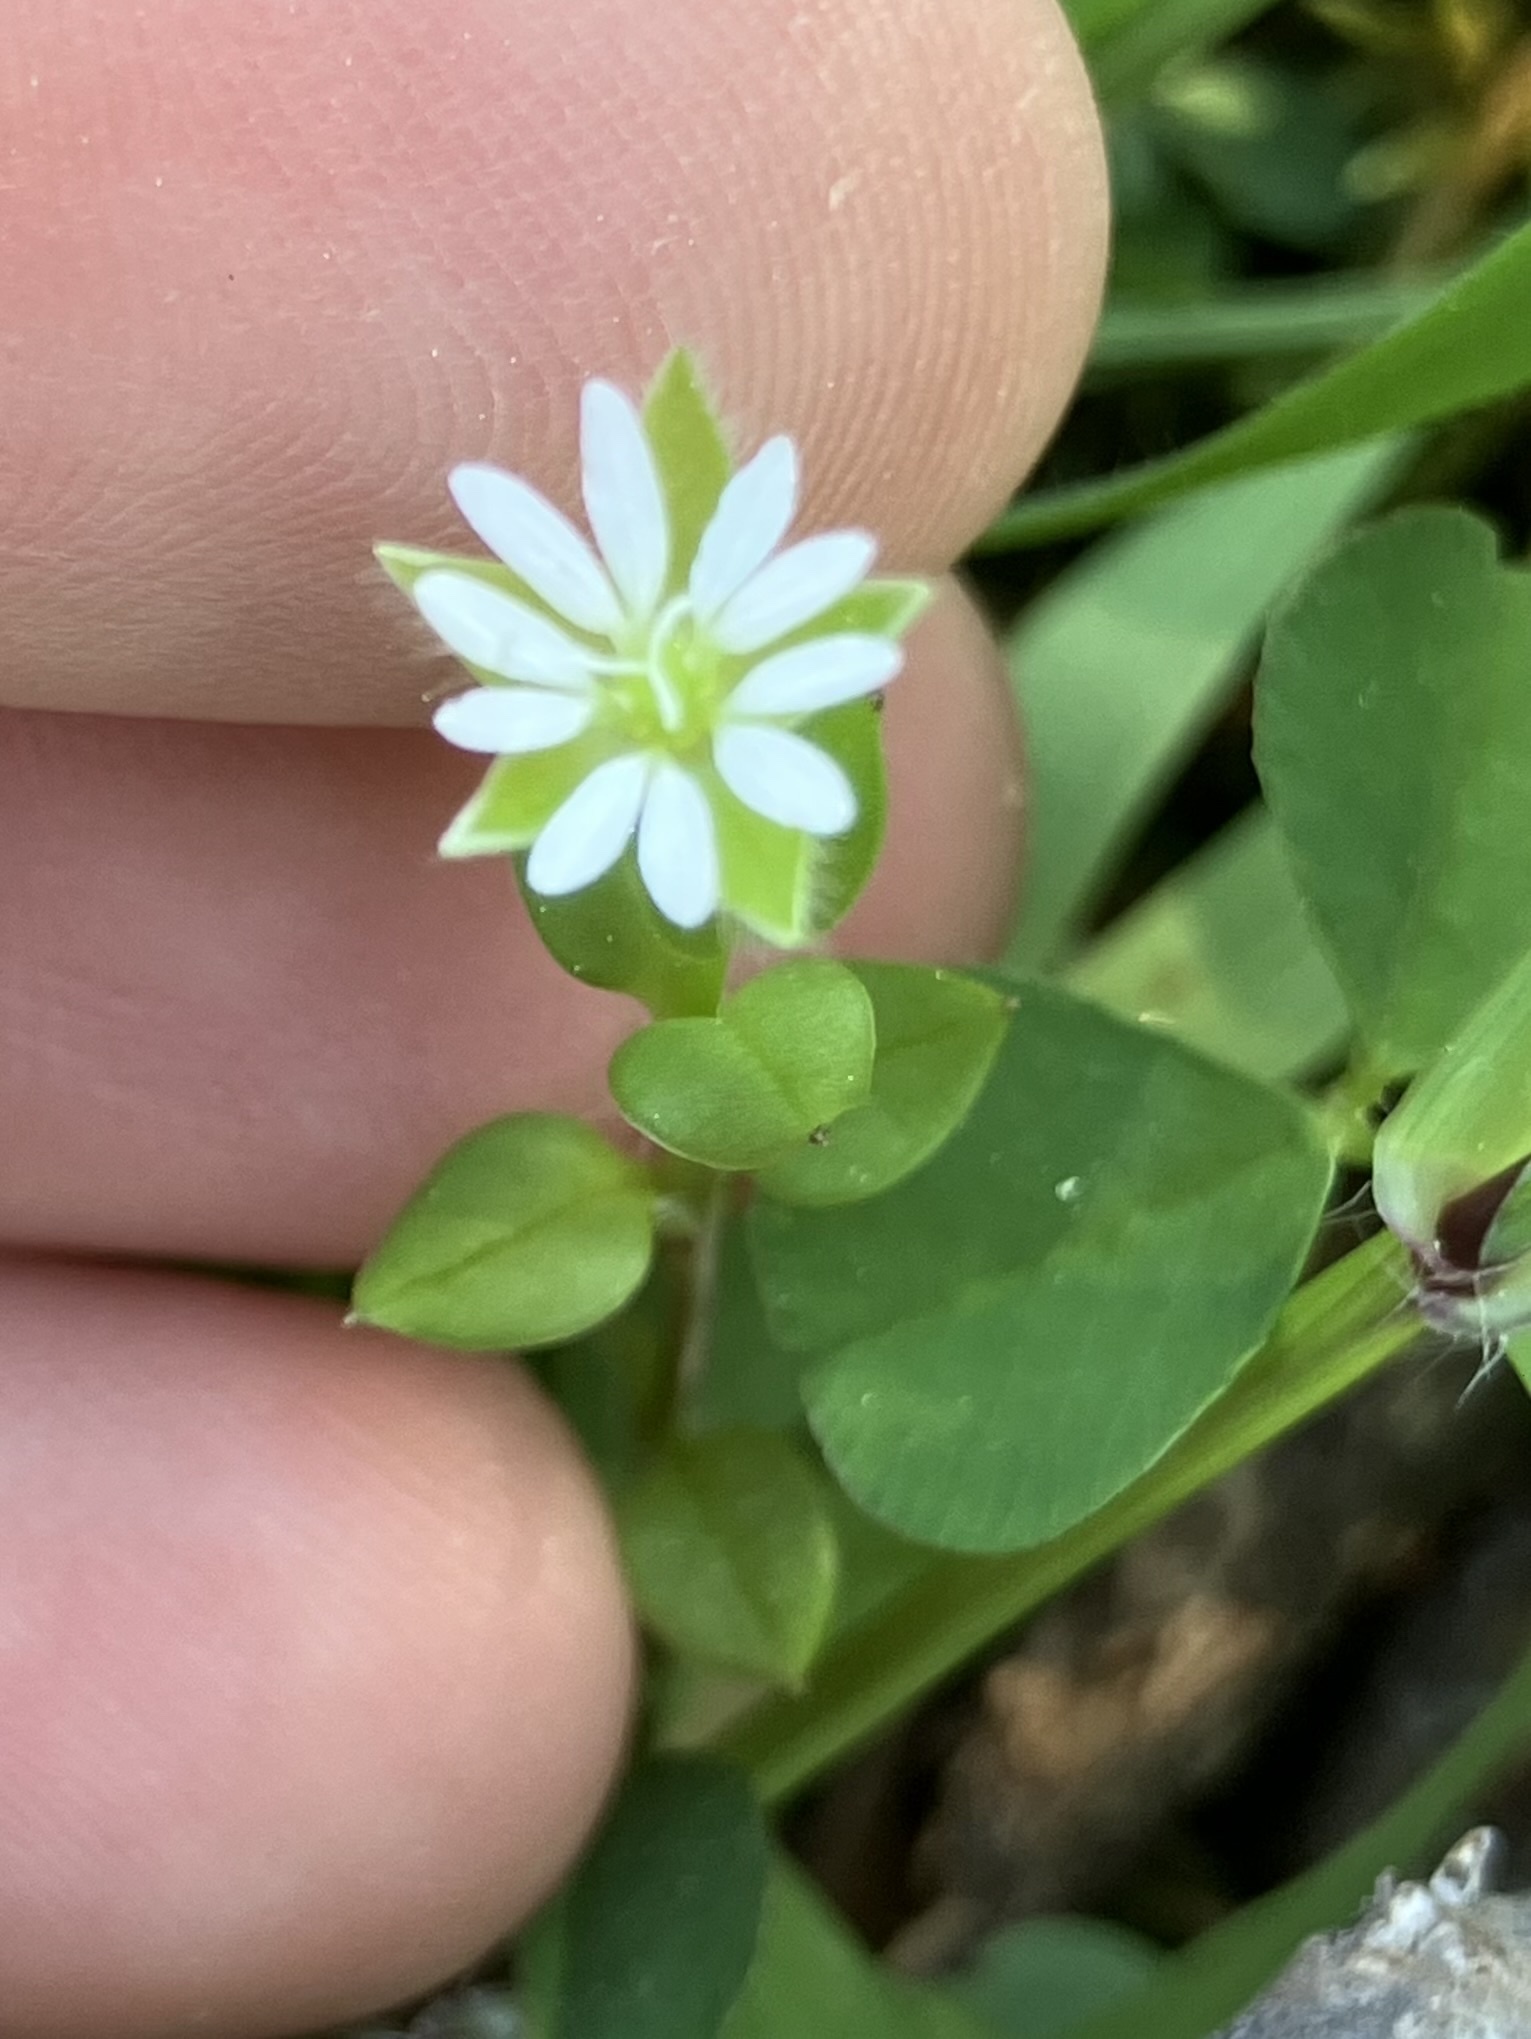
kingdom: Plantae
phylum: Tracheophyta
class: Magnoliopsida
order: Caryophyllales
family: Caryophyllaceae
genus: Stellaria
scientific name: Stellaria media
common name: Common chickweed
